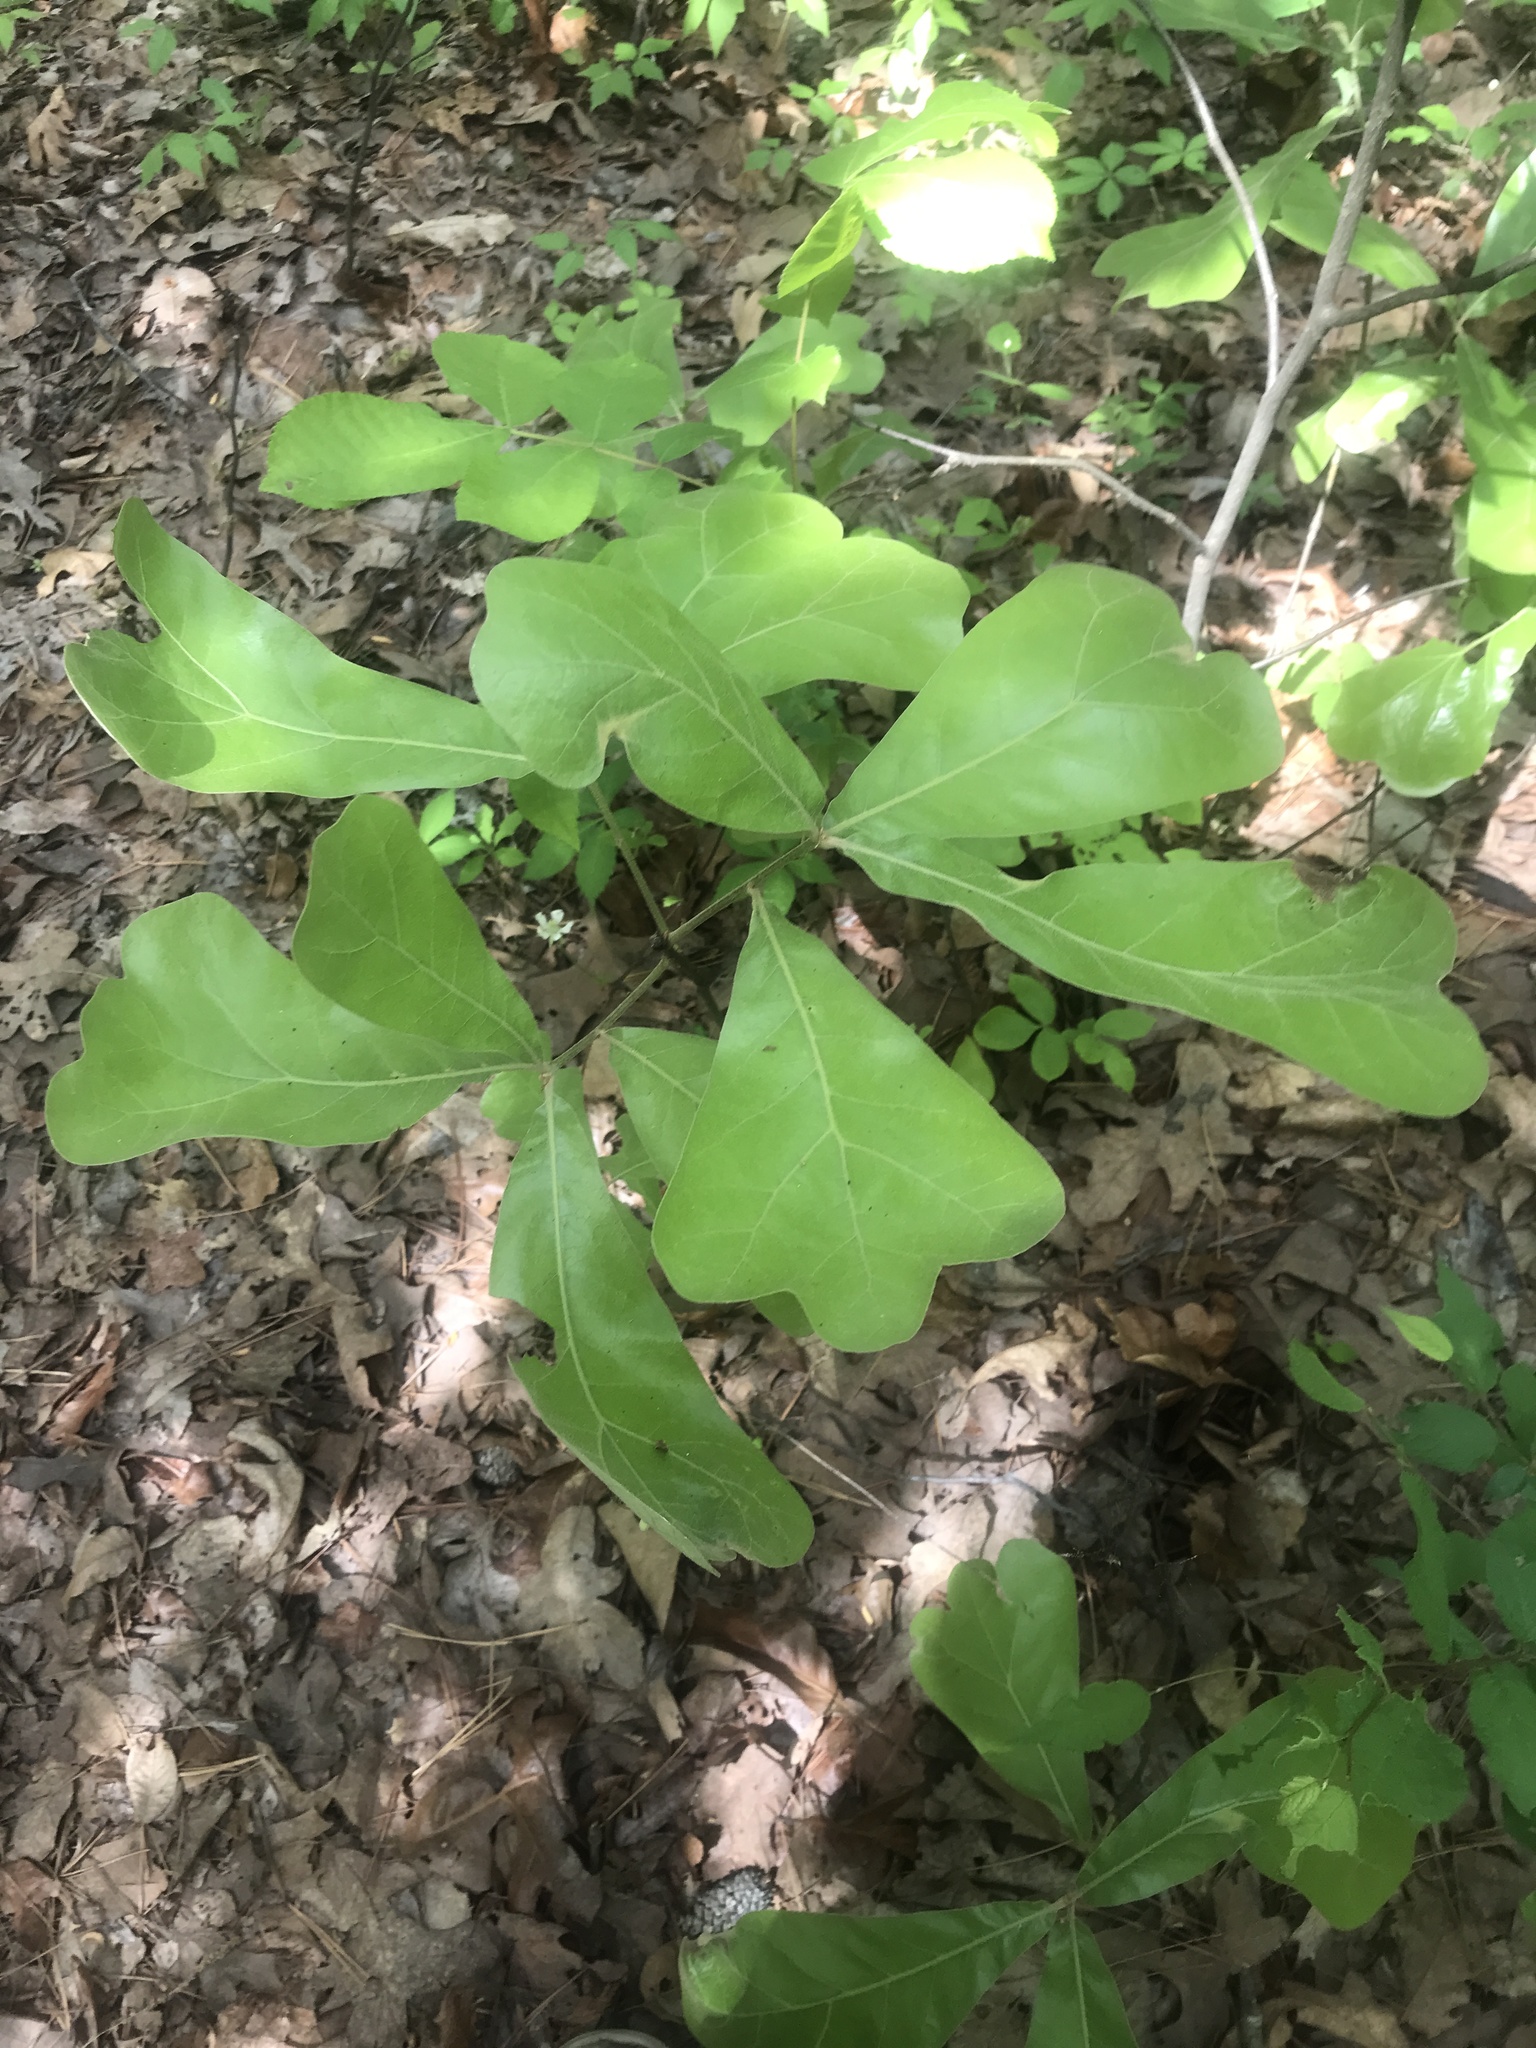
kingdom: Plantae
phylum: Tracheophyta
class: Magnoliopsida
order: Fagales
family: Fagaceae
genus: Quercus
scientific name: Quercus marilandica
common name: Blackjack oak
